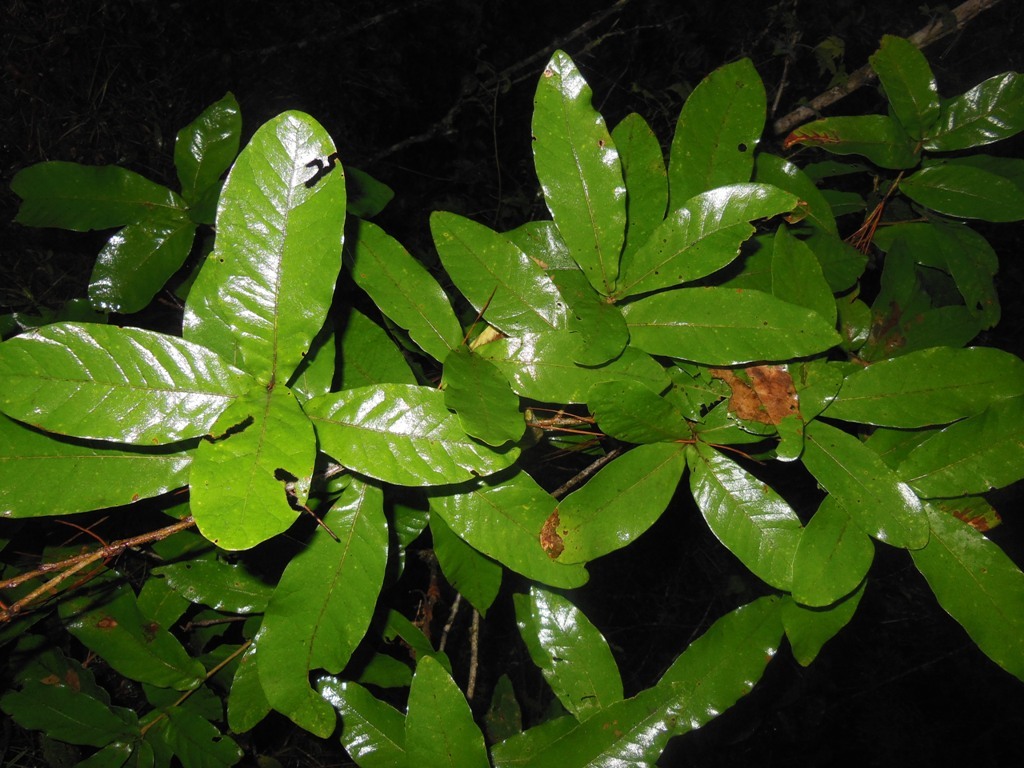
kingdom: Plantae
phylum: Tracheophyta
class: Magnoliopsida
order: Fagales
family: Fagaceae
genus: Quercus
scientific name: Quercus elliptica
